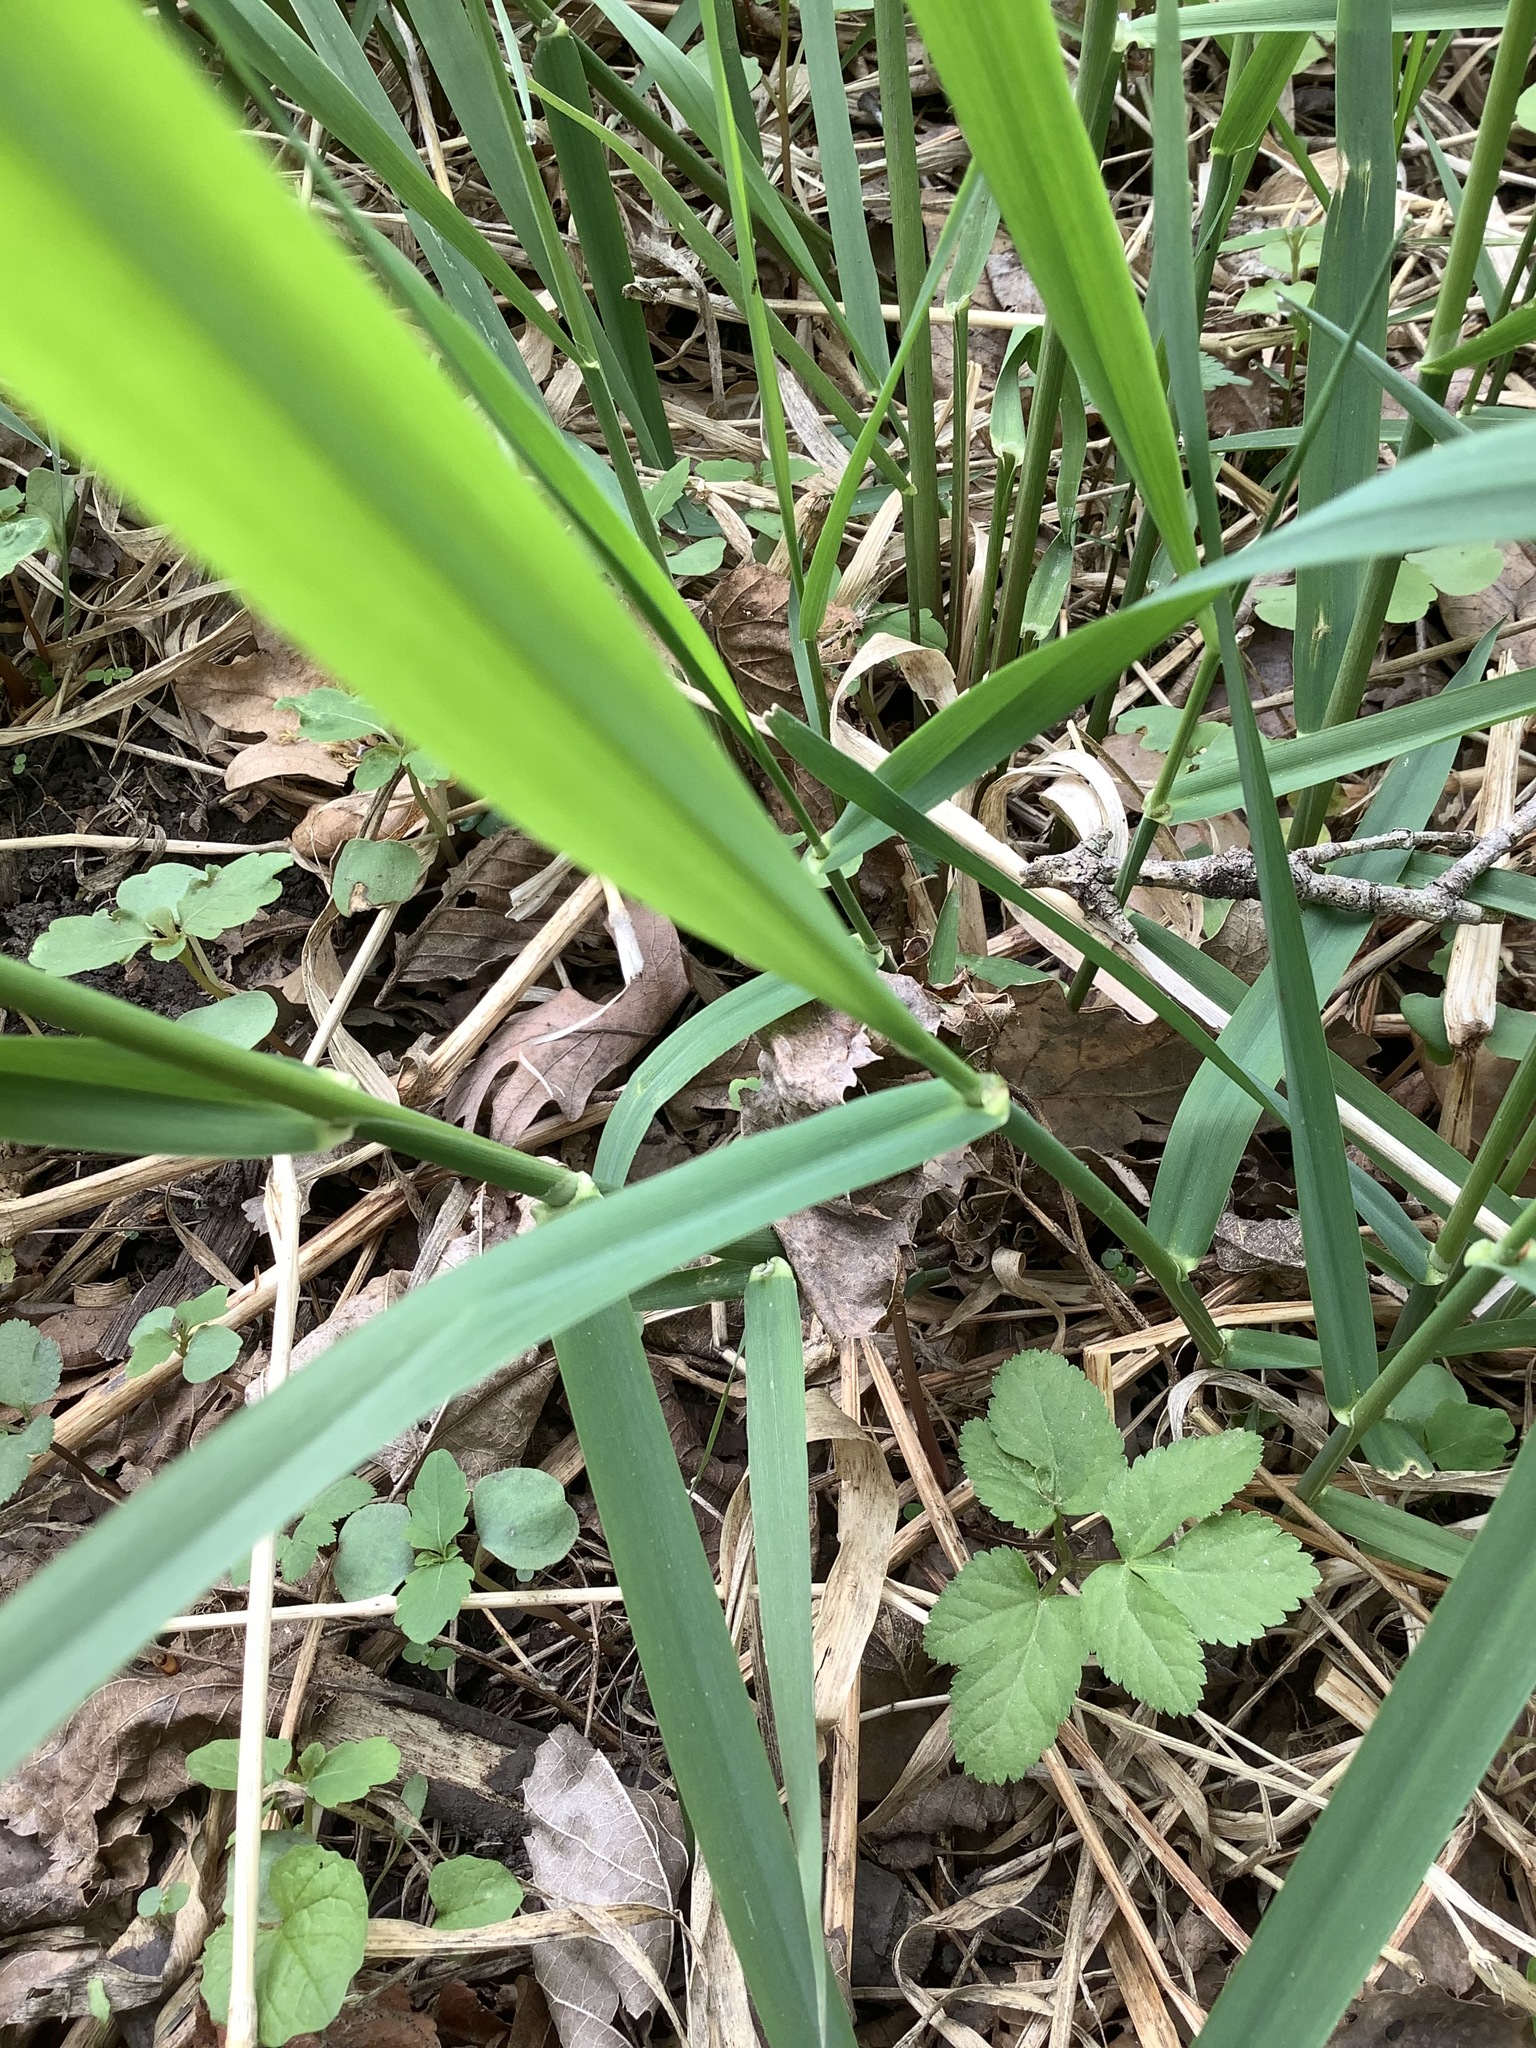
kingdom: Plantae
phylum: Tracheophyta
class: Liliopsida
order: Poales
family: Poaceae
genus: Phalaris
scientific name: Phalaris arundinacea
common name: Reed canary-grass
